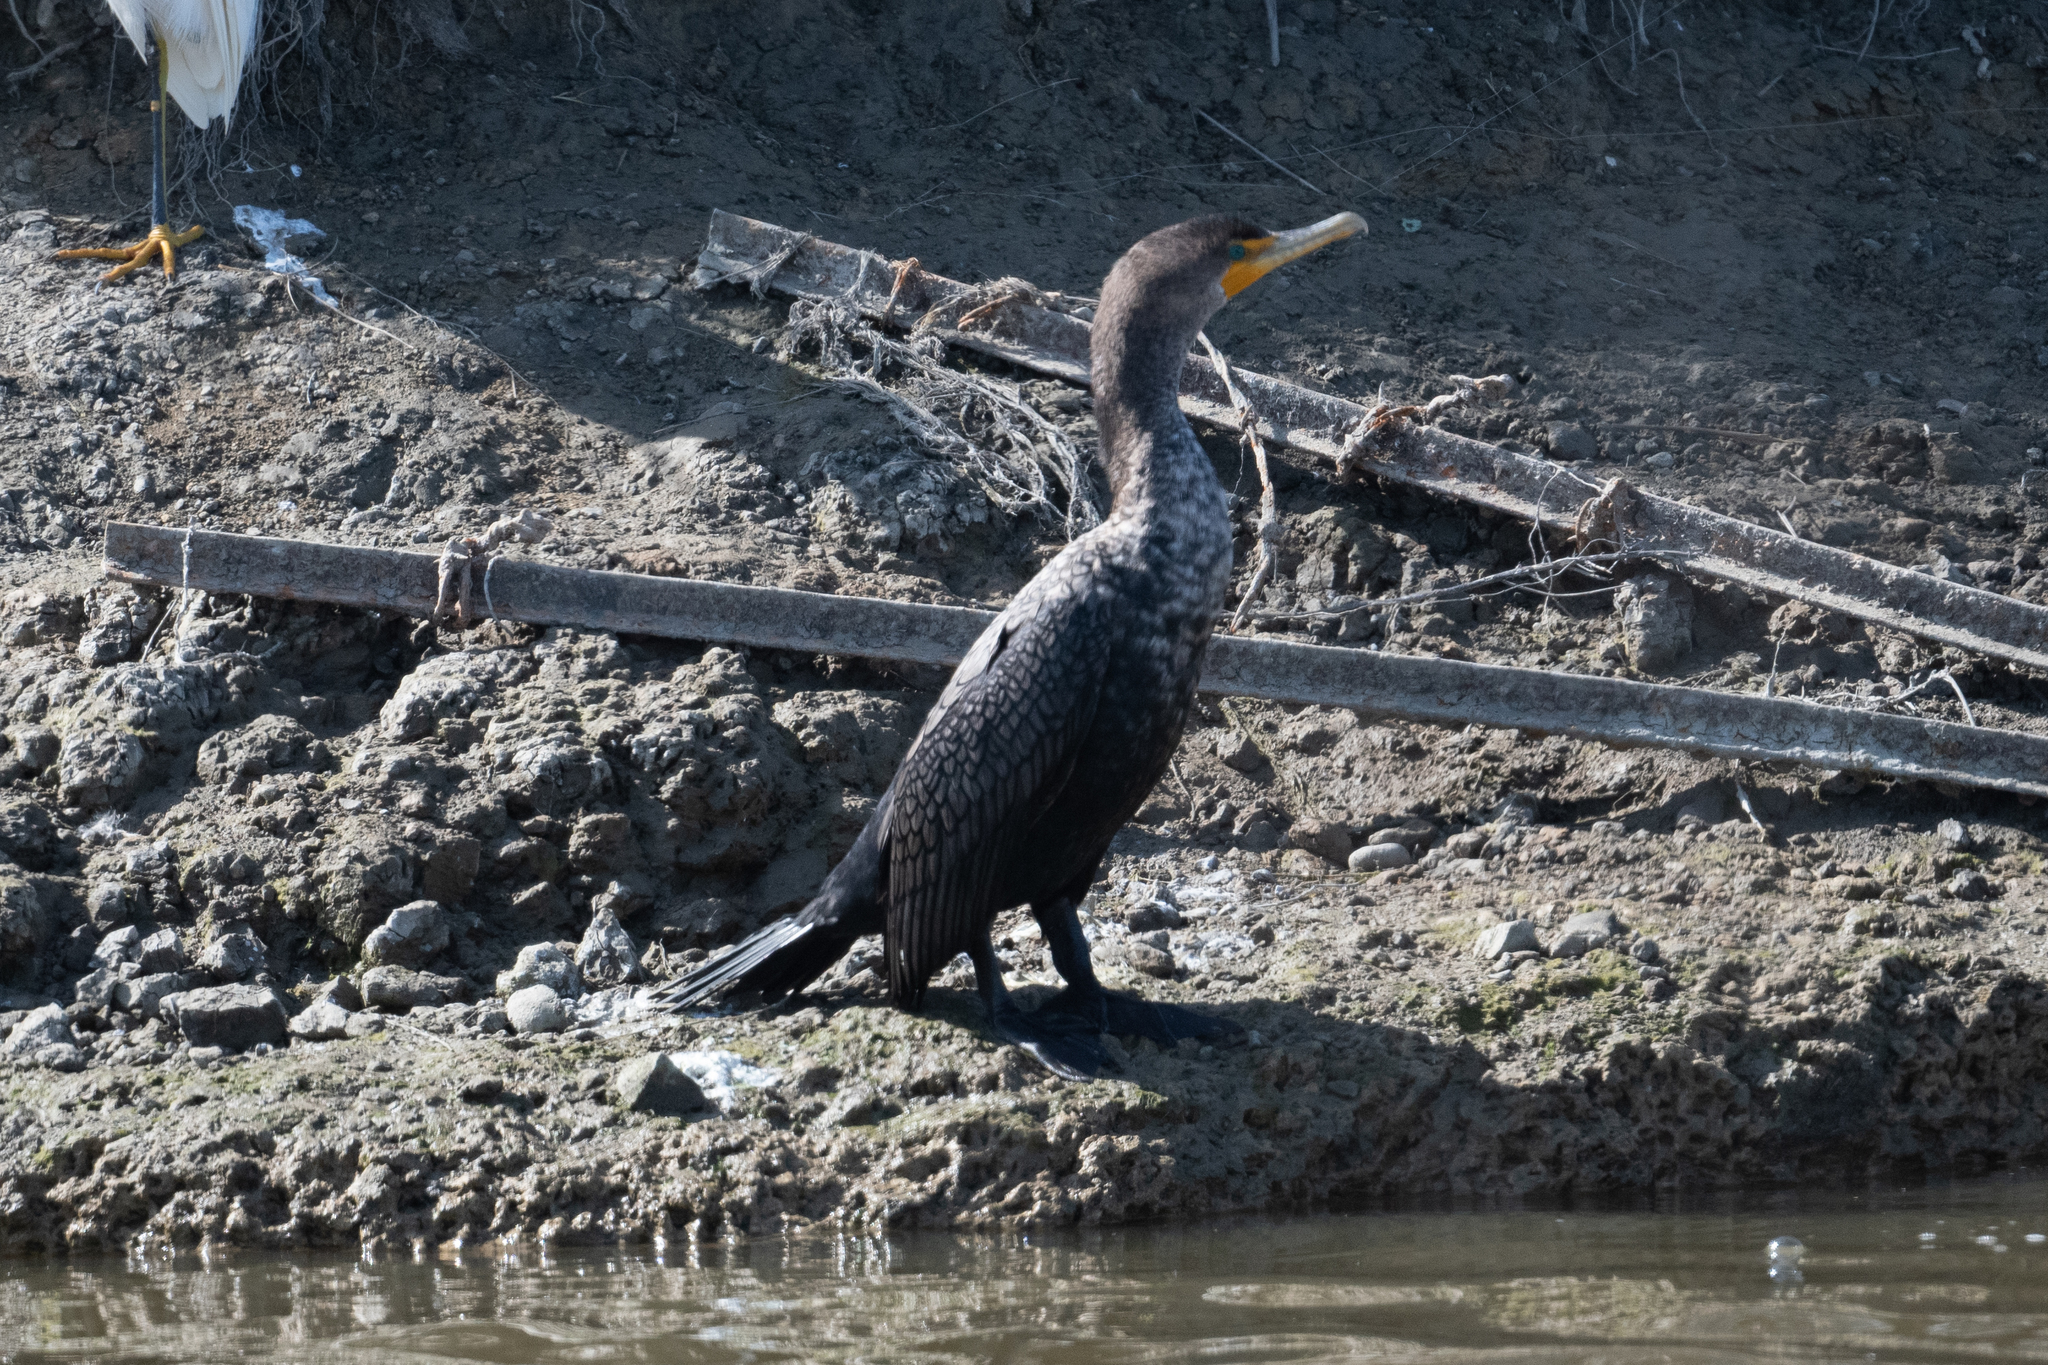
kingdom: Animalia
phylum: Chordata
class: Aves
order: Suliformes
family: Phalacrocoracidae
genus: Phalacrocorax
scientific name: Phalacrocorax auritus
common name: Double-crested cormorant
